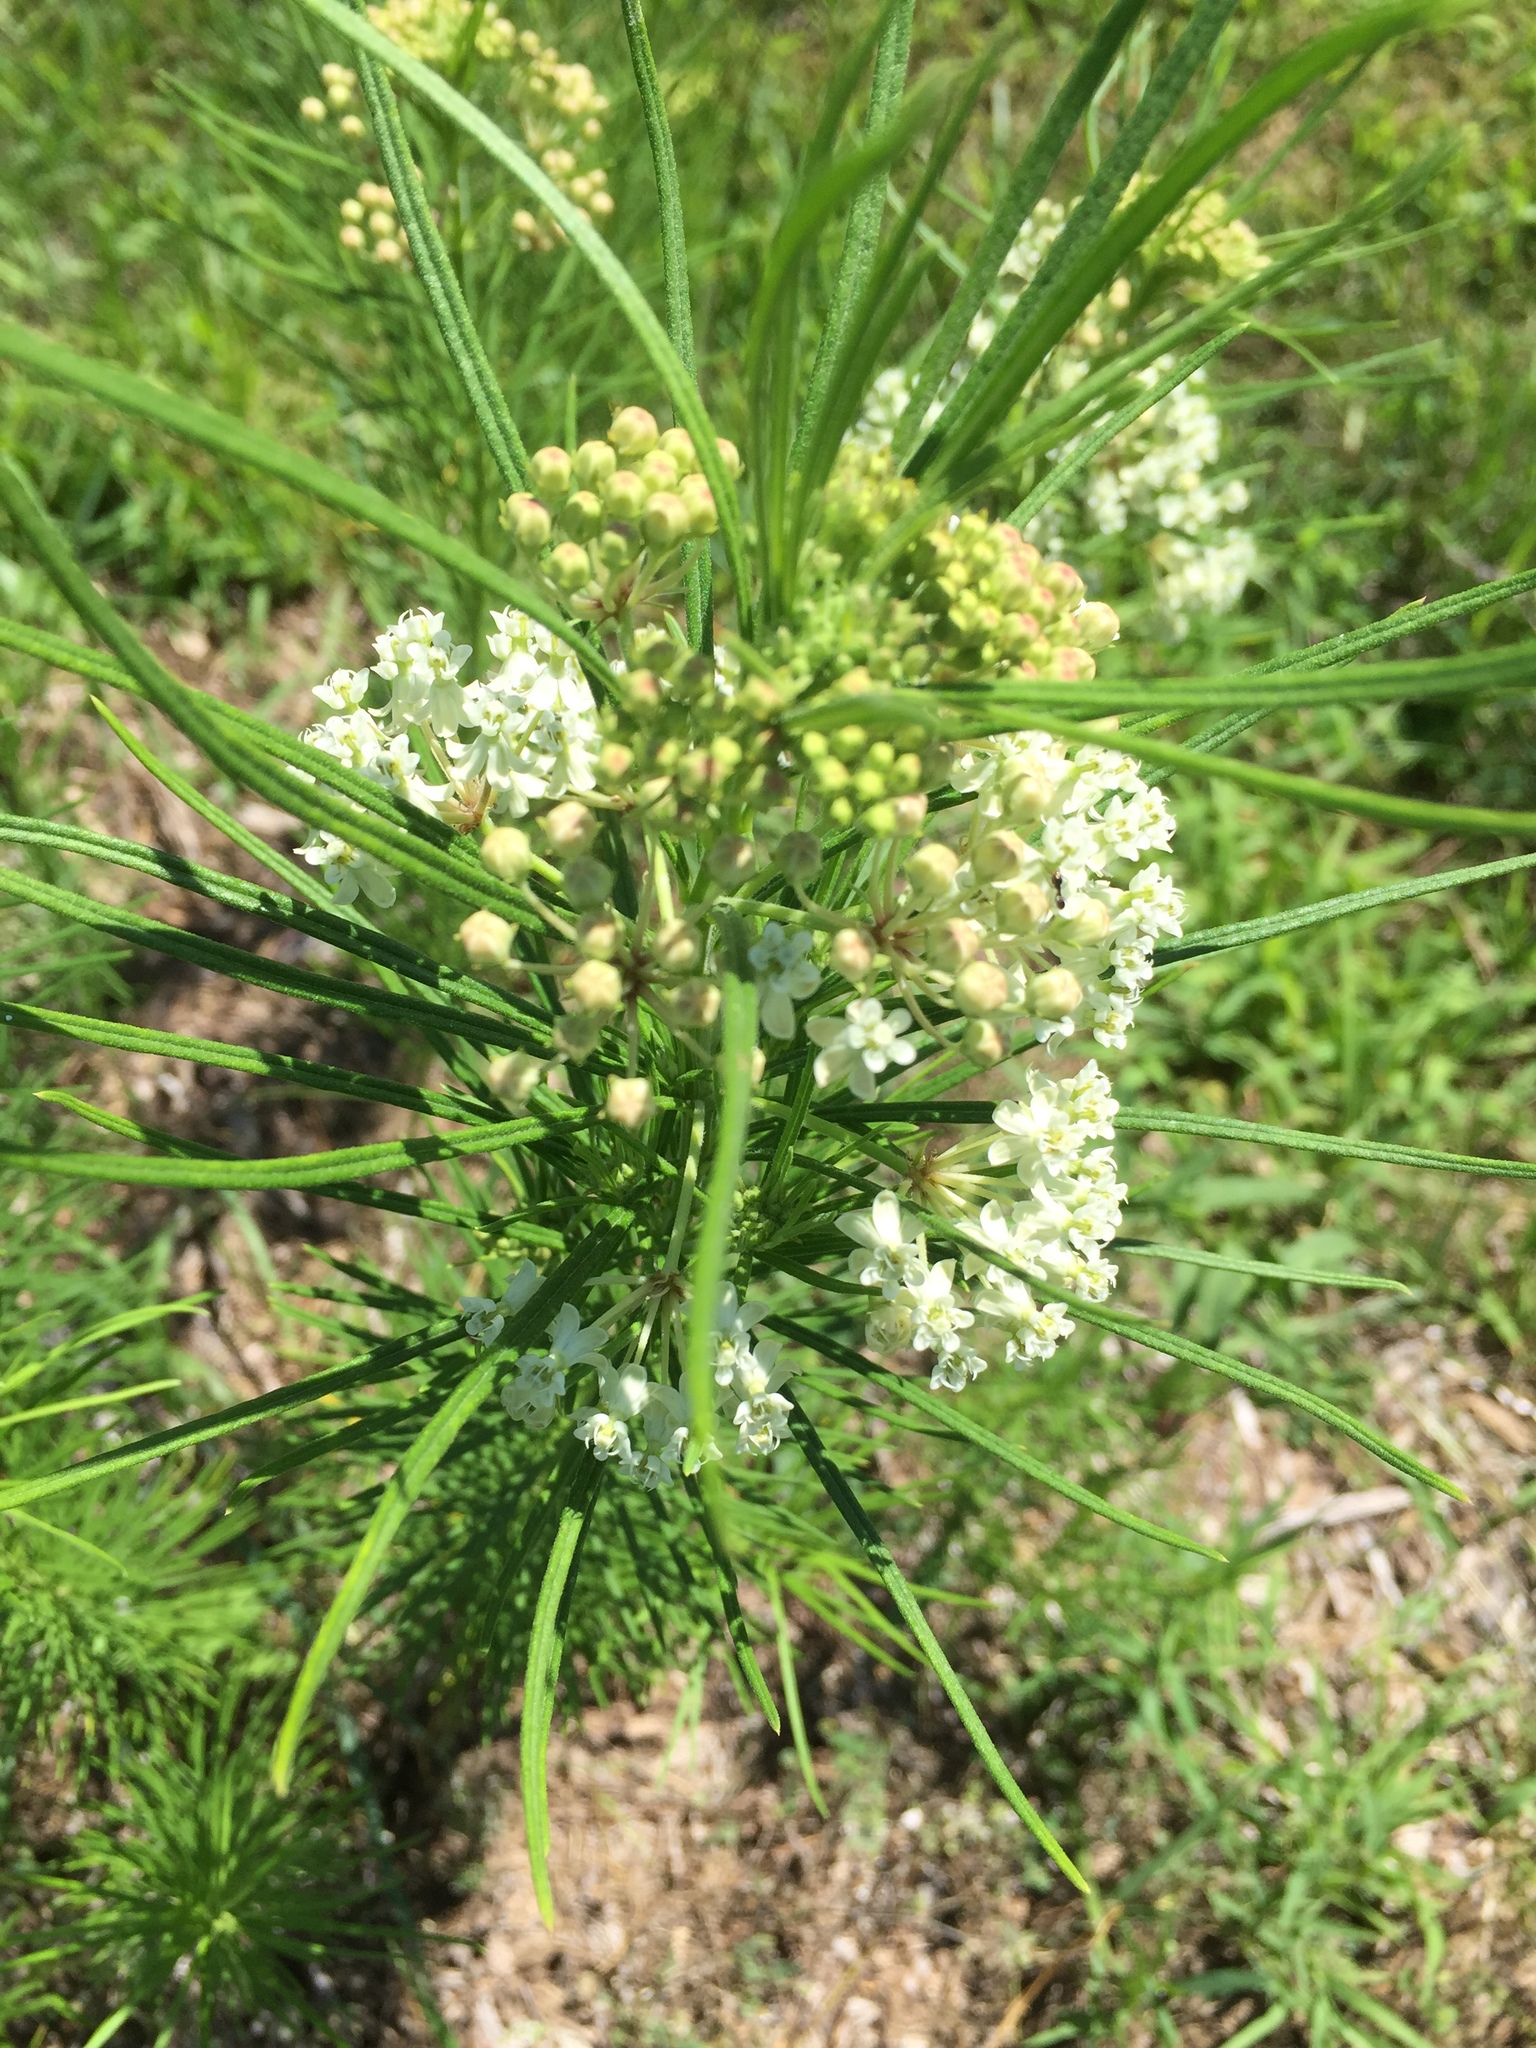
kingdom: Plantae
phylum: Tracheophyta
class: Magnoliopsida
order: Gentianales
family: Apocynaceae
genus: Asclepias
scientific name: Asclepias verticillata
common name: Eastern whorled milkweed
